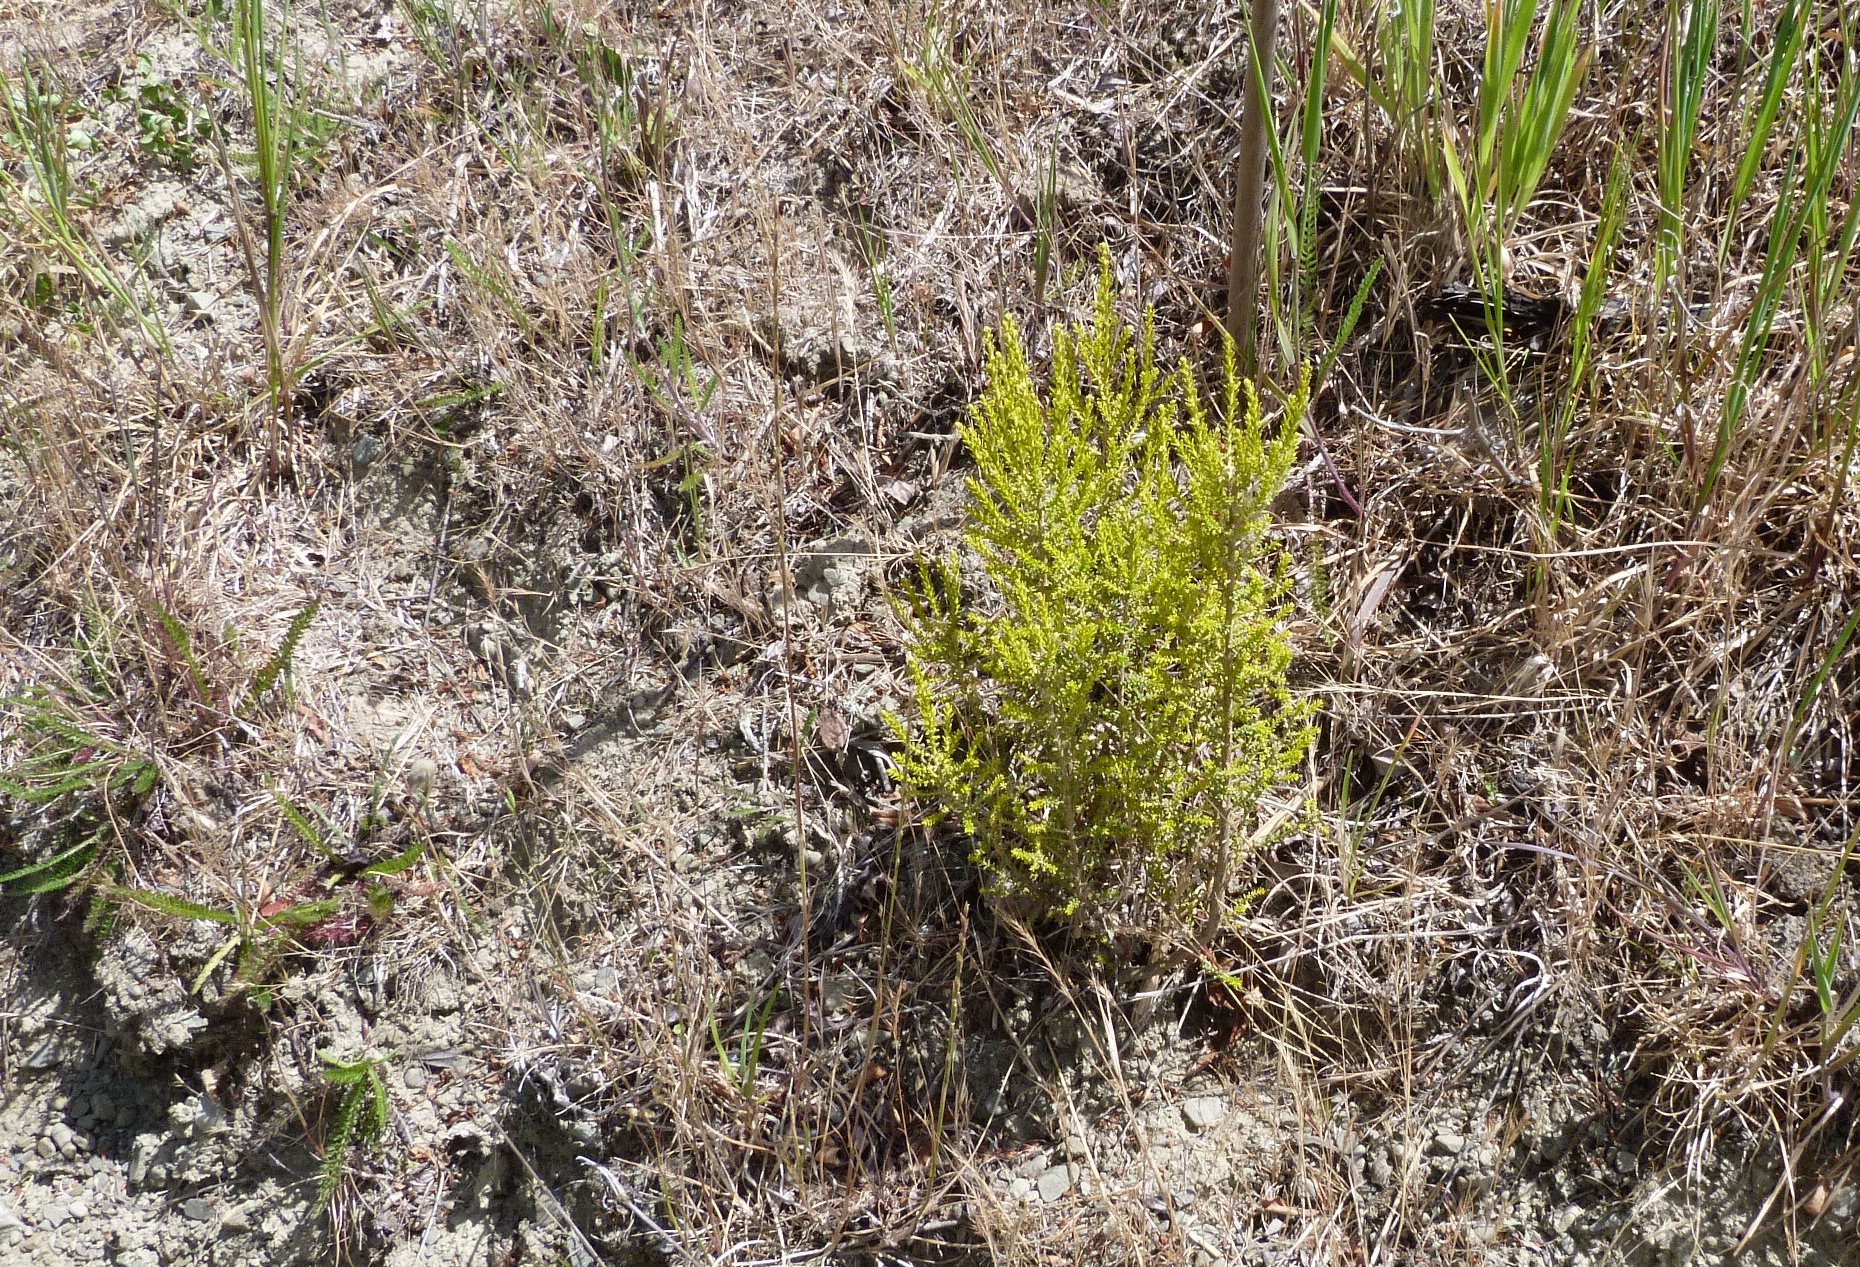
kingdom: Plantae
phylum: Tracheophyta
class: Magnoliopsida
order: Asterales
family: Asteraceae
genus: Ozothamnus
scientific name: Ozothamnus leptophyllus
